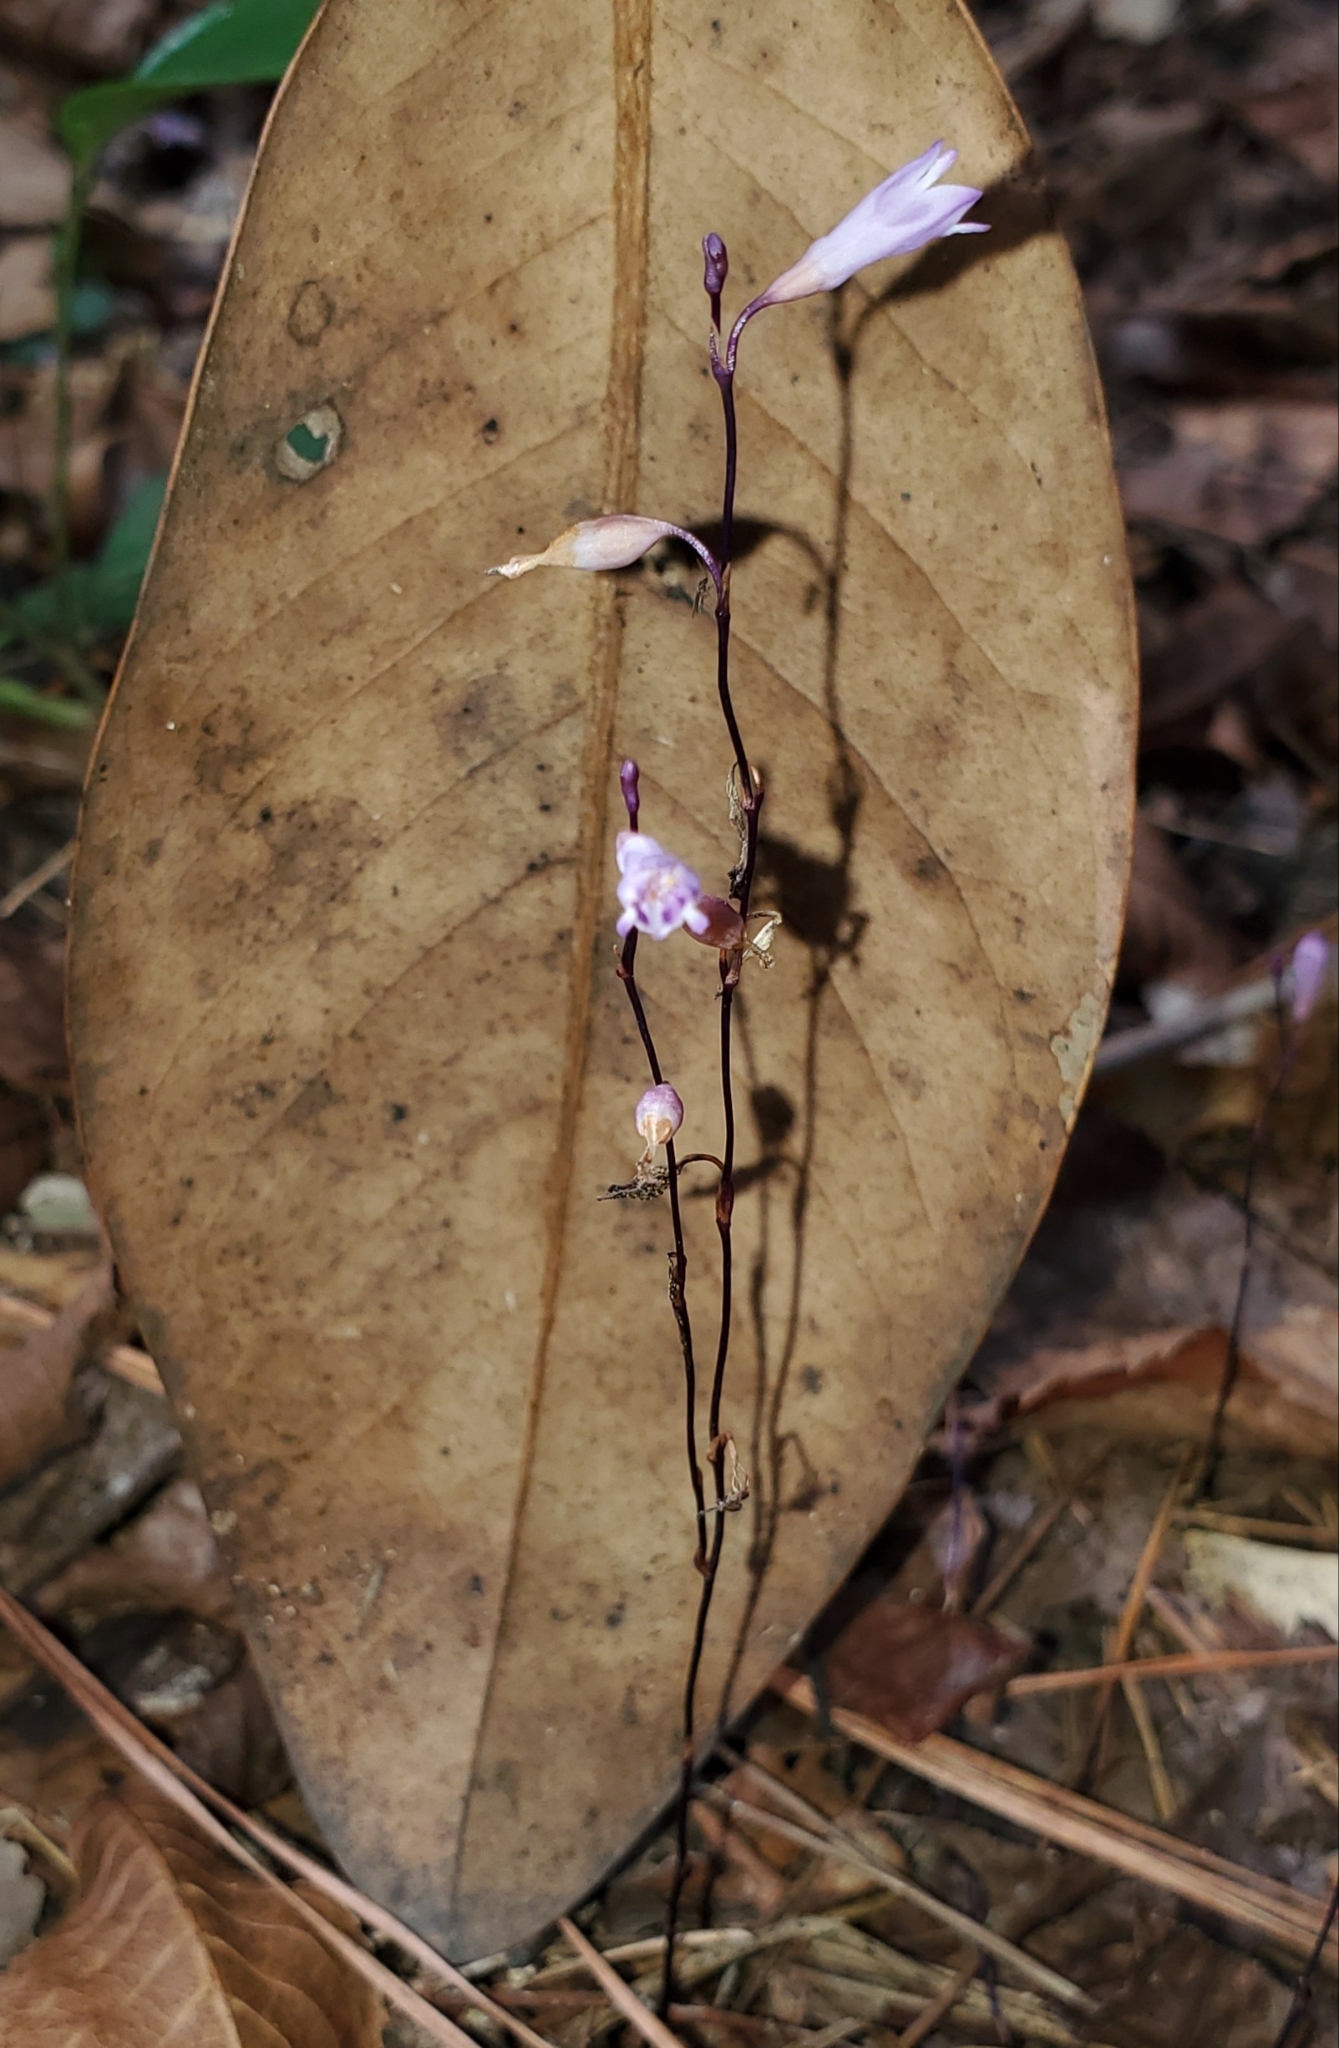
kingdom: Plantae
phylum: Tracheophyta
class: Liliopsida
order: Dioscoreales
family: Burmanniaceae
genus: Apteria
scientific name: Apteria aphylla
